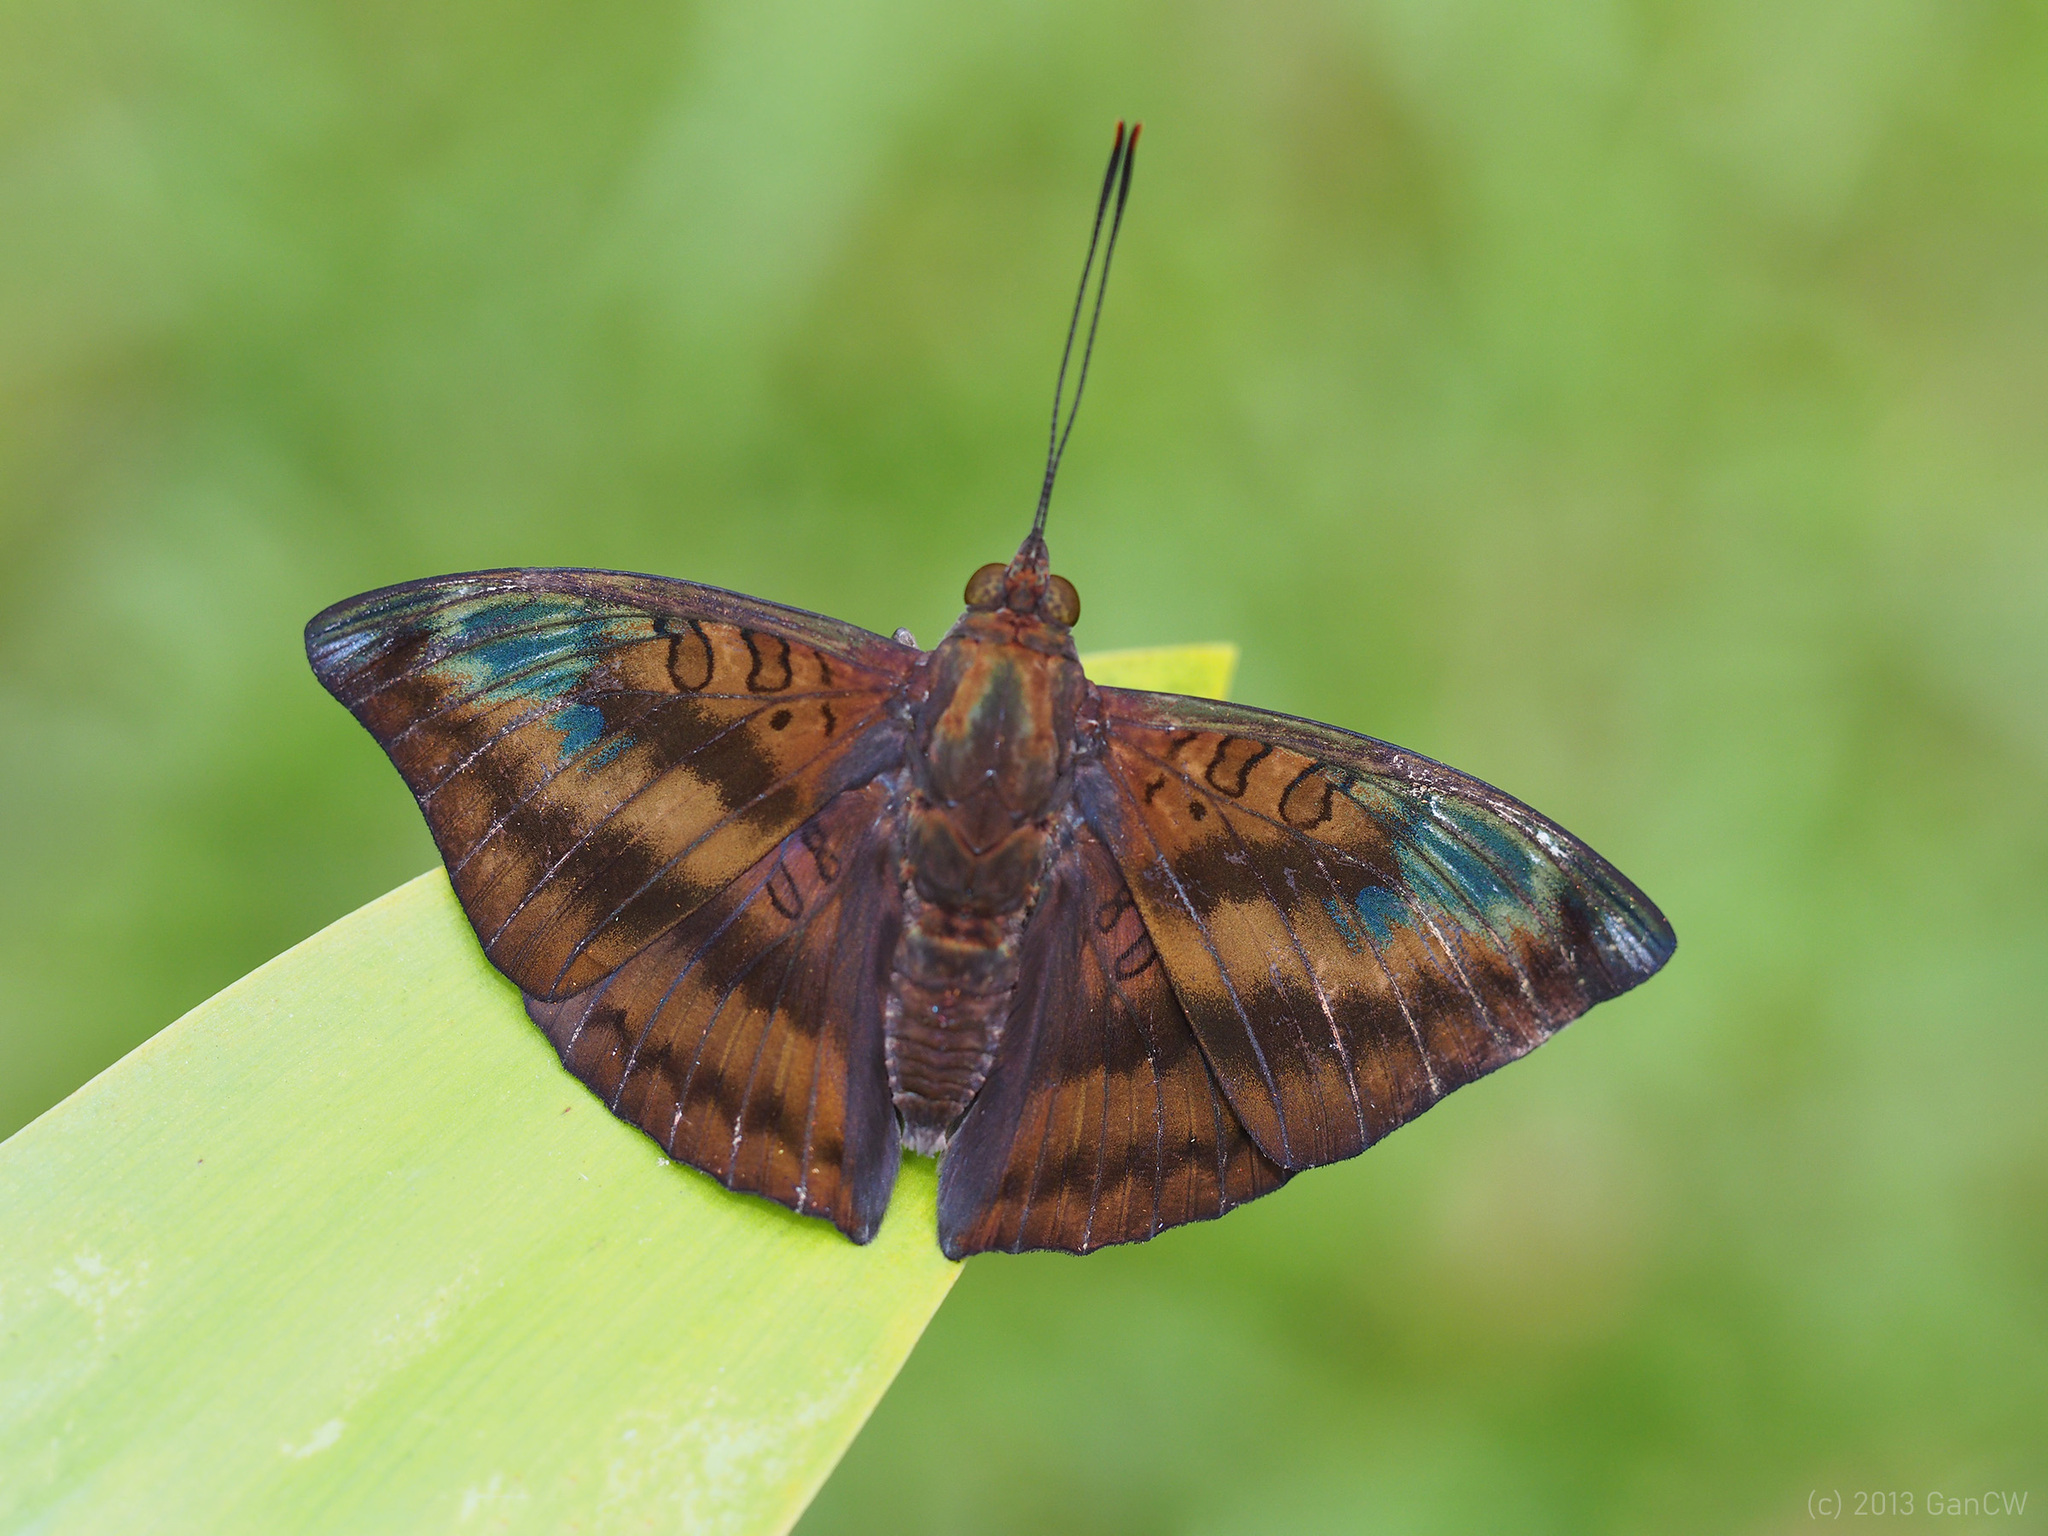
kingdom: Animalia
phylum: Arthropoda
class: Insecta
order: Lepidoptera
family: Nymphalidae
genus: Euthalia
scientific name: Euthalia alpheda
